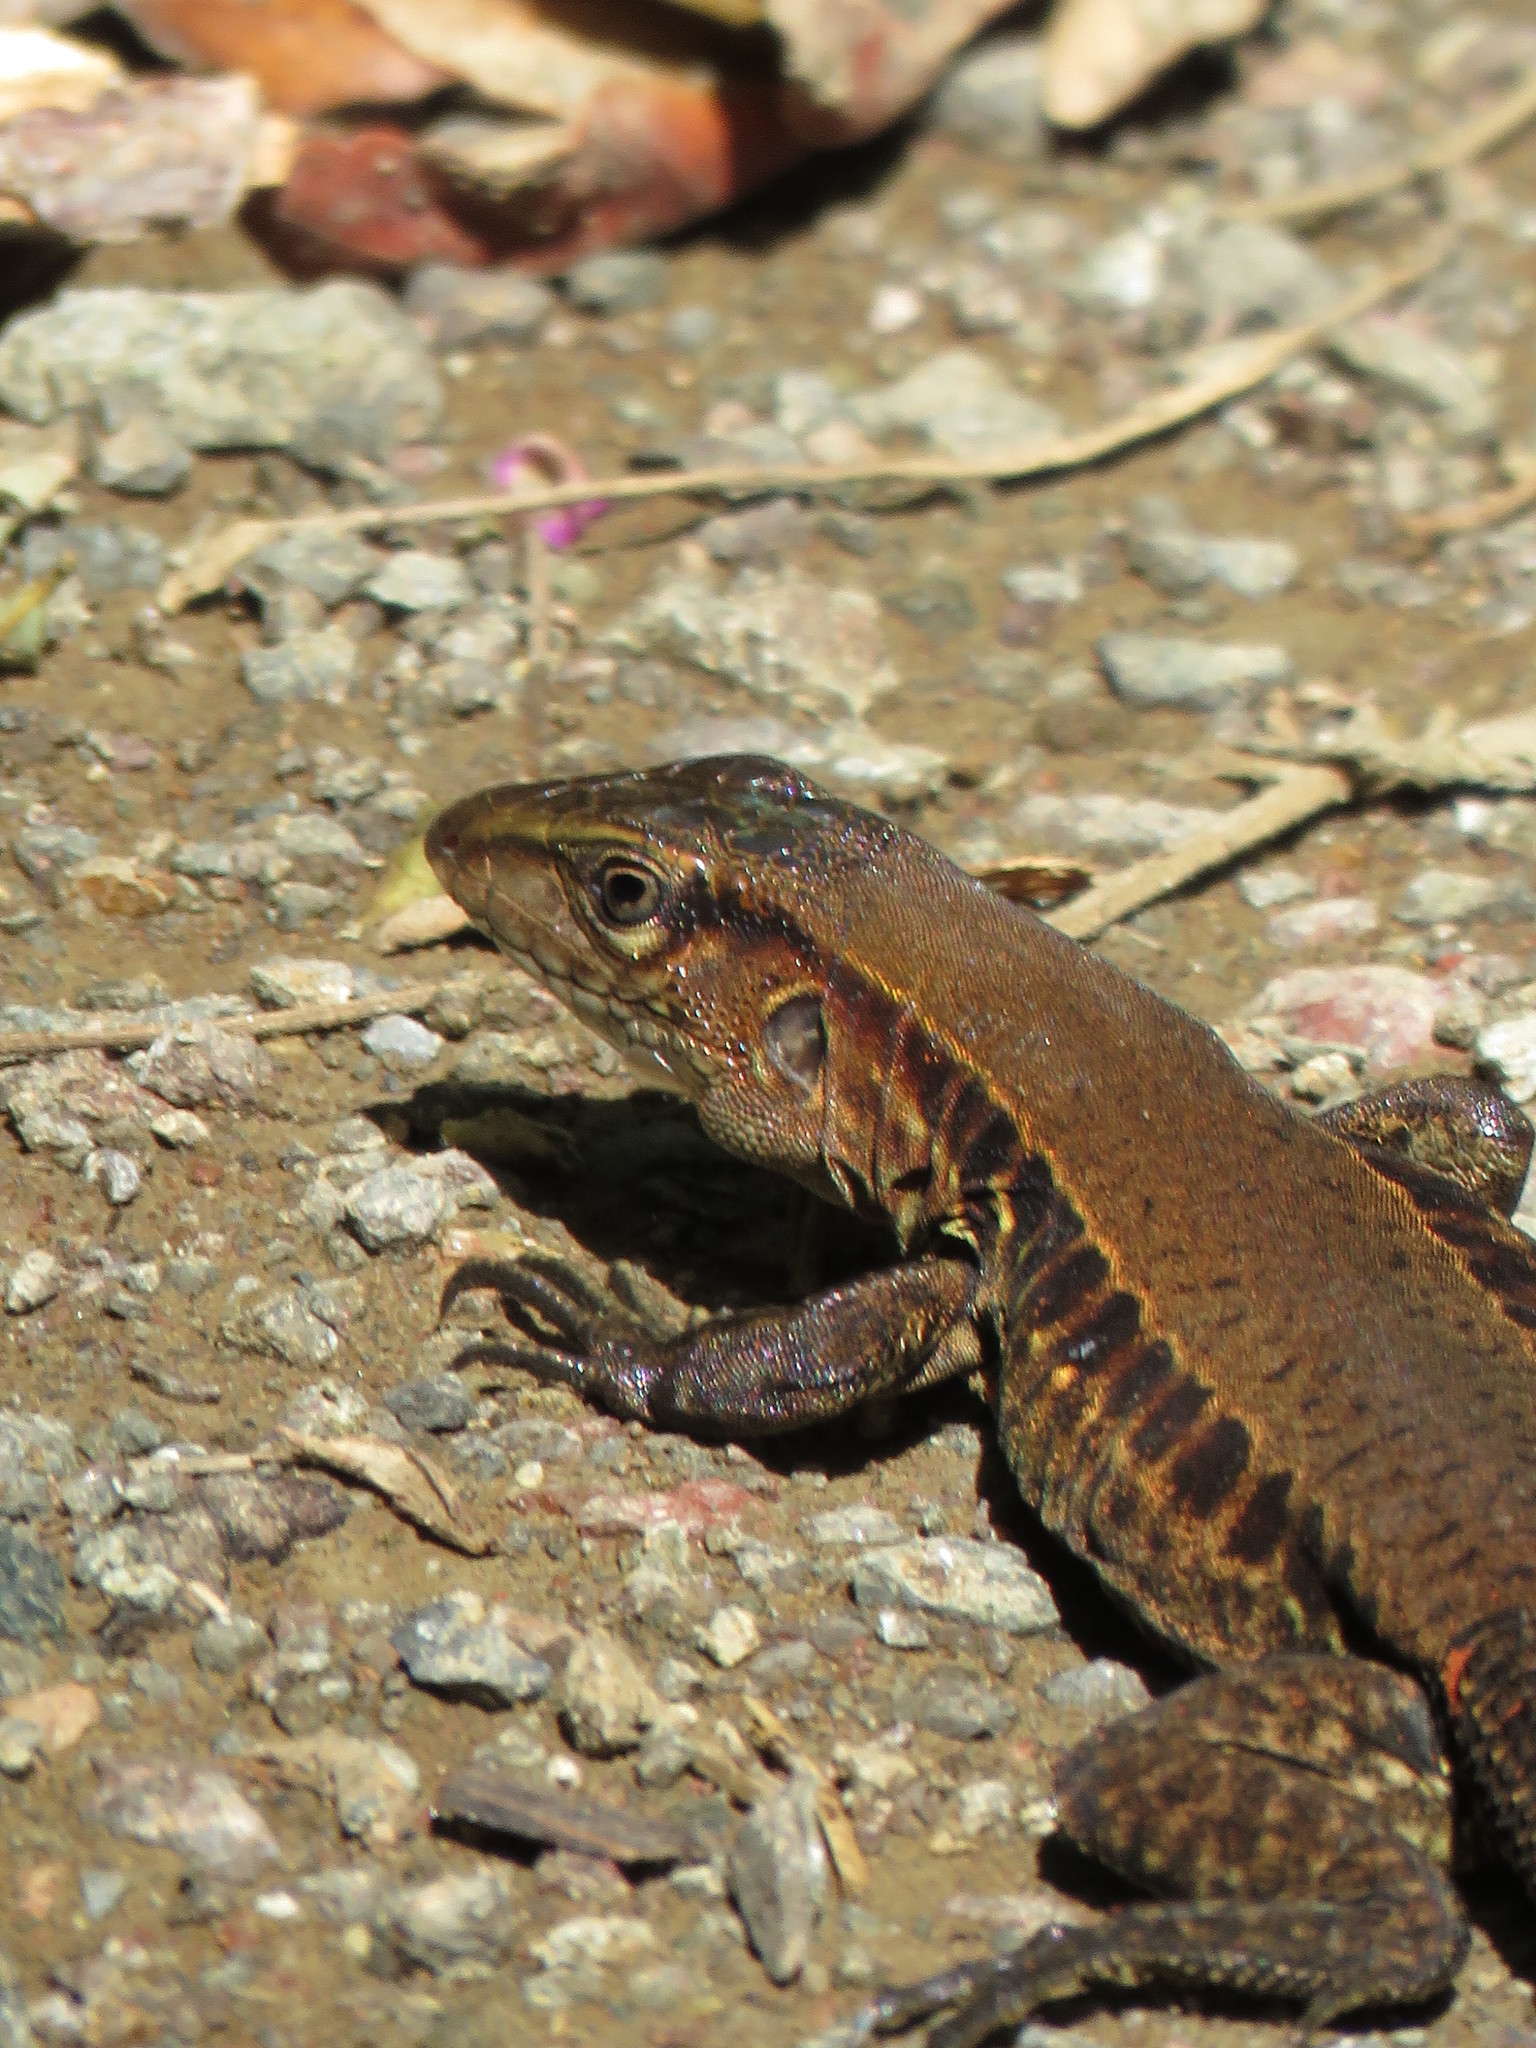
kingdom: Animalia
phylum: Chordata
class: Squamata
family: Teiidae
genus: Holcosus
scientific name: Holcosus quadrilineatus
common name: Four-lined ameiva
